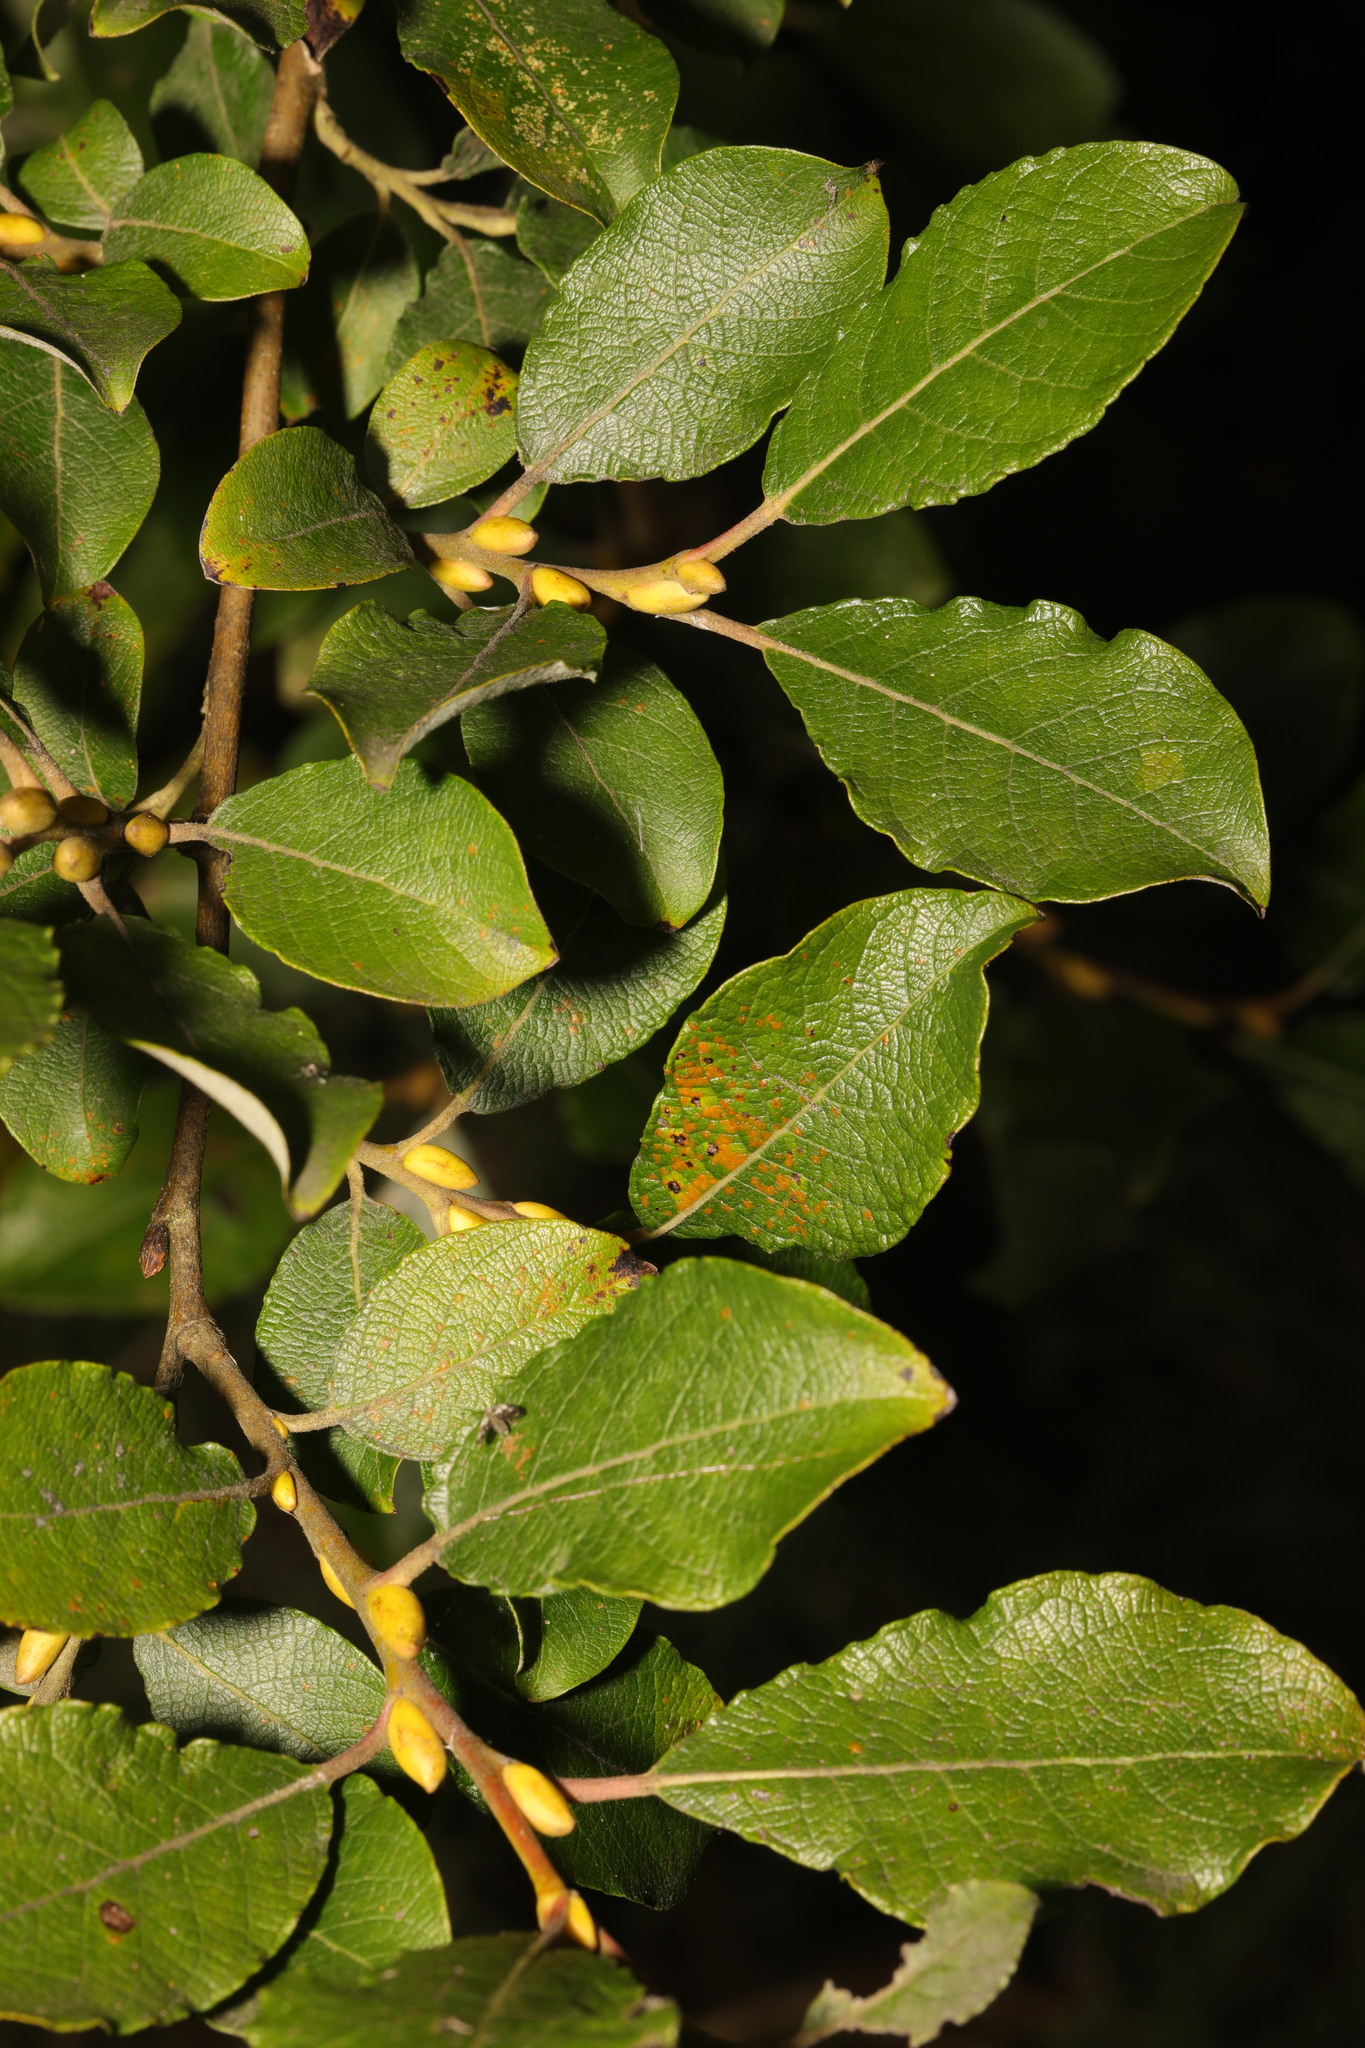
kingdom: Plantae
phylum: Tracheophyta
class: Magnoliopsida
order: Malpighiales
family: Salicaceae
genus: Salix
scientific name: Salix caprea
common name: Goat willow
